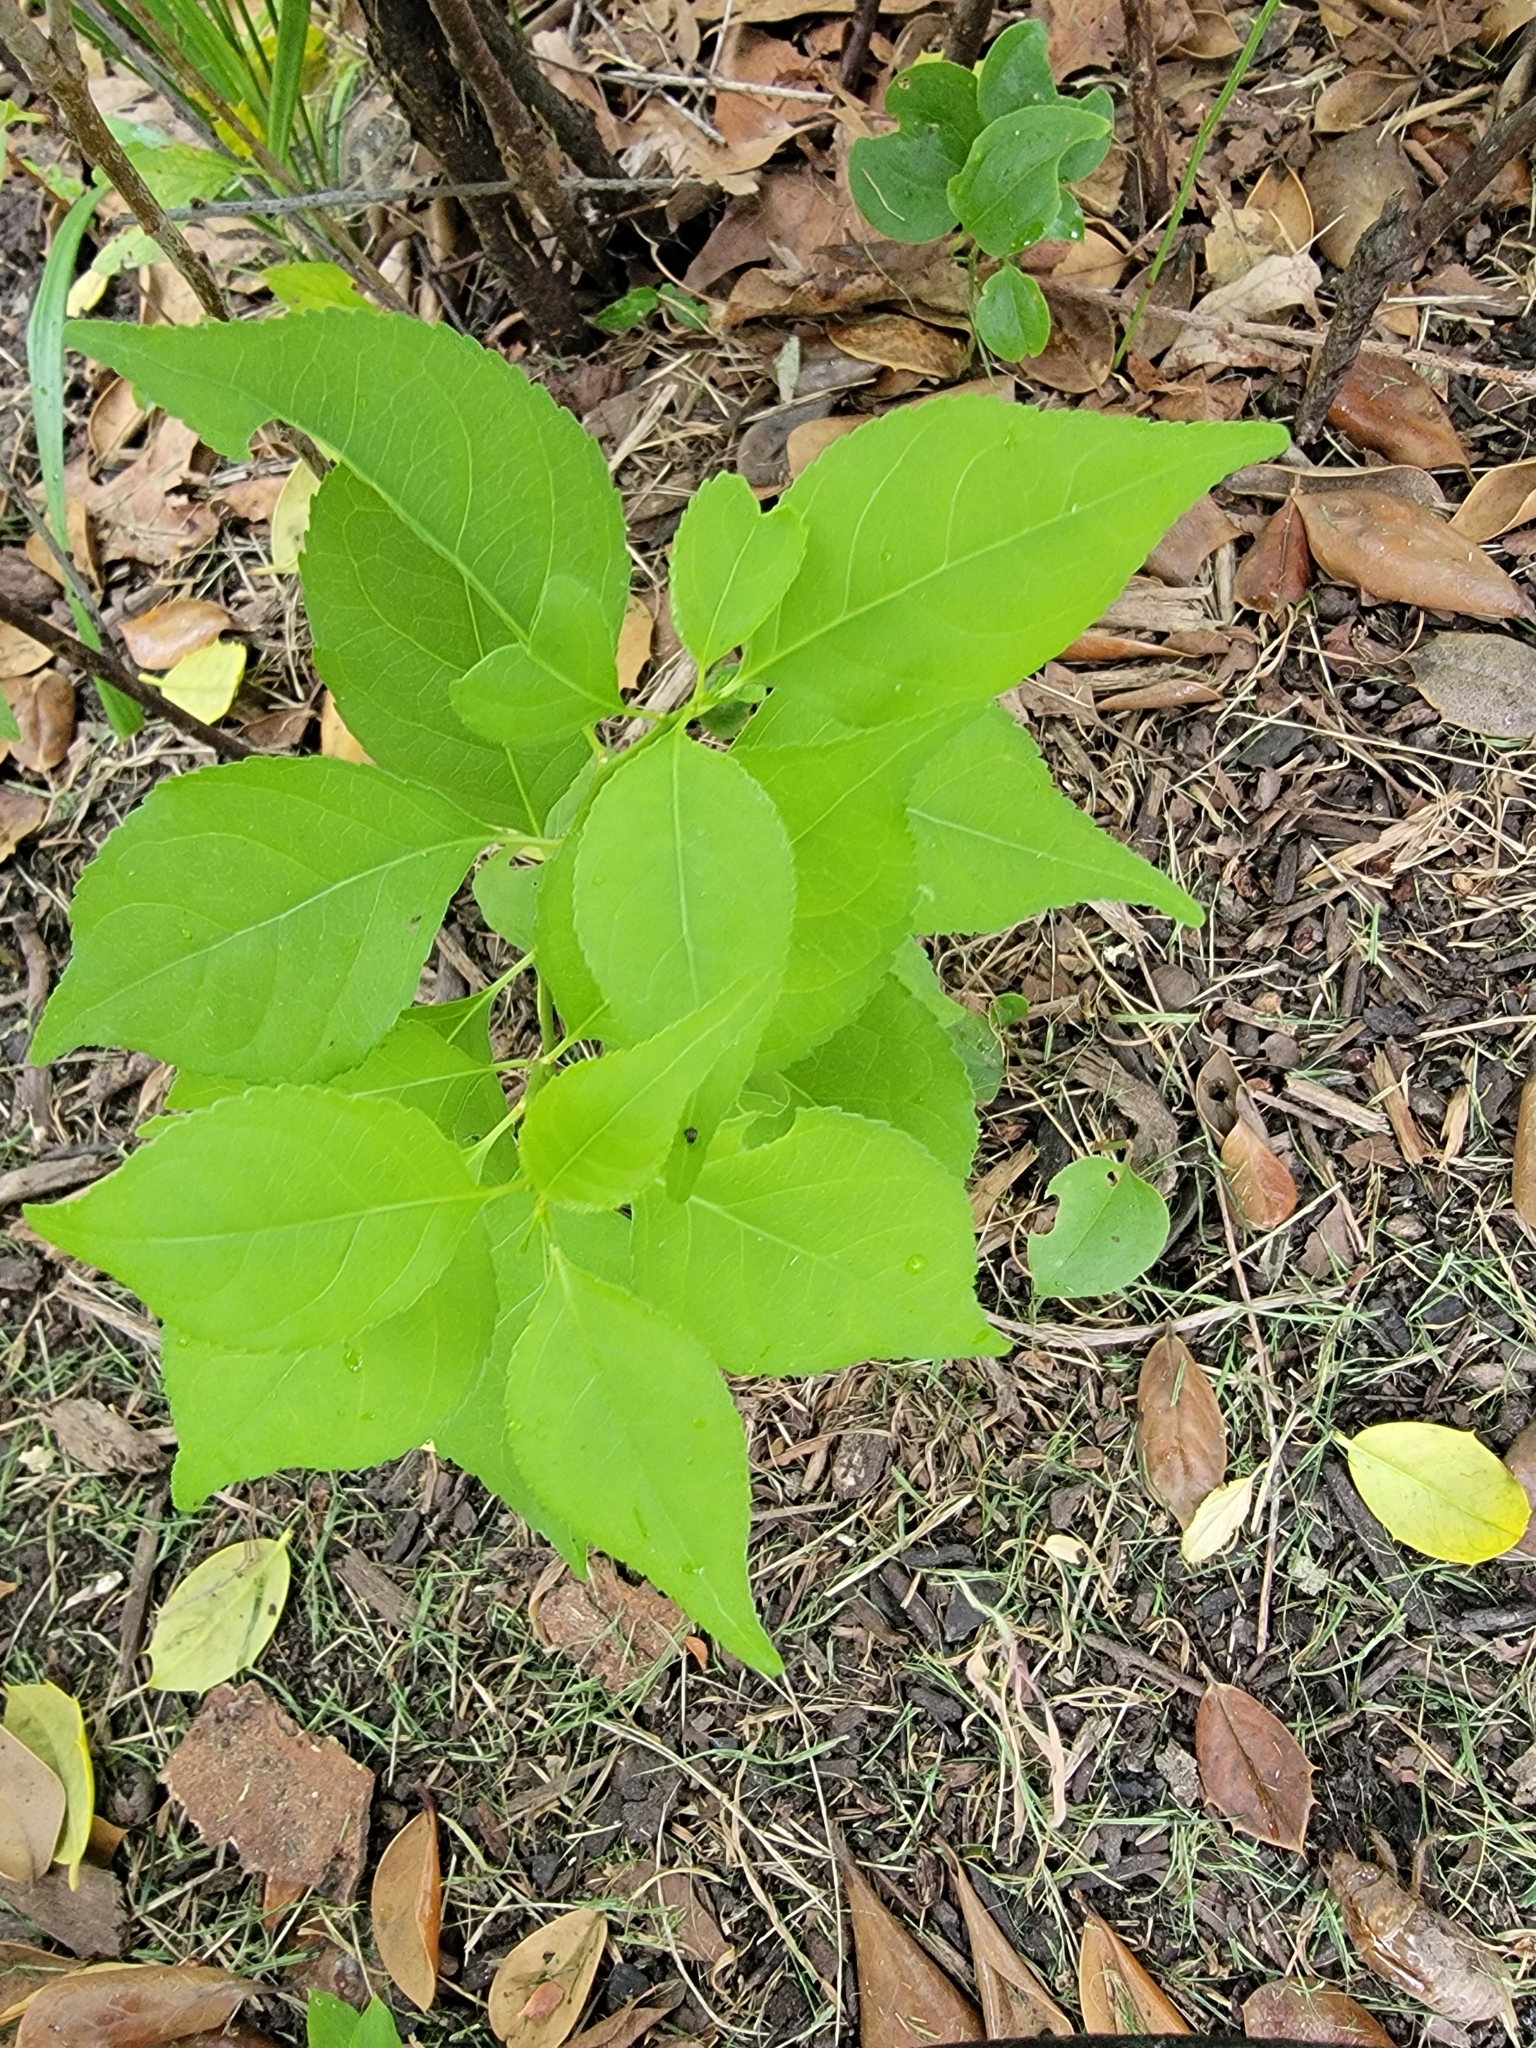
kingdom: Plantae
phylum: Tracheophyta
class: Magnoliopsida
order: Celastrales
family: Celastraceae
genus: Celastrus
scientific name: Celastrus orbiculatus
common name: Oriental bittersweet
